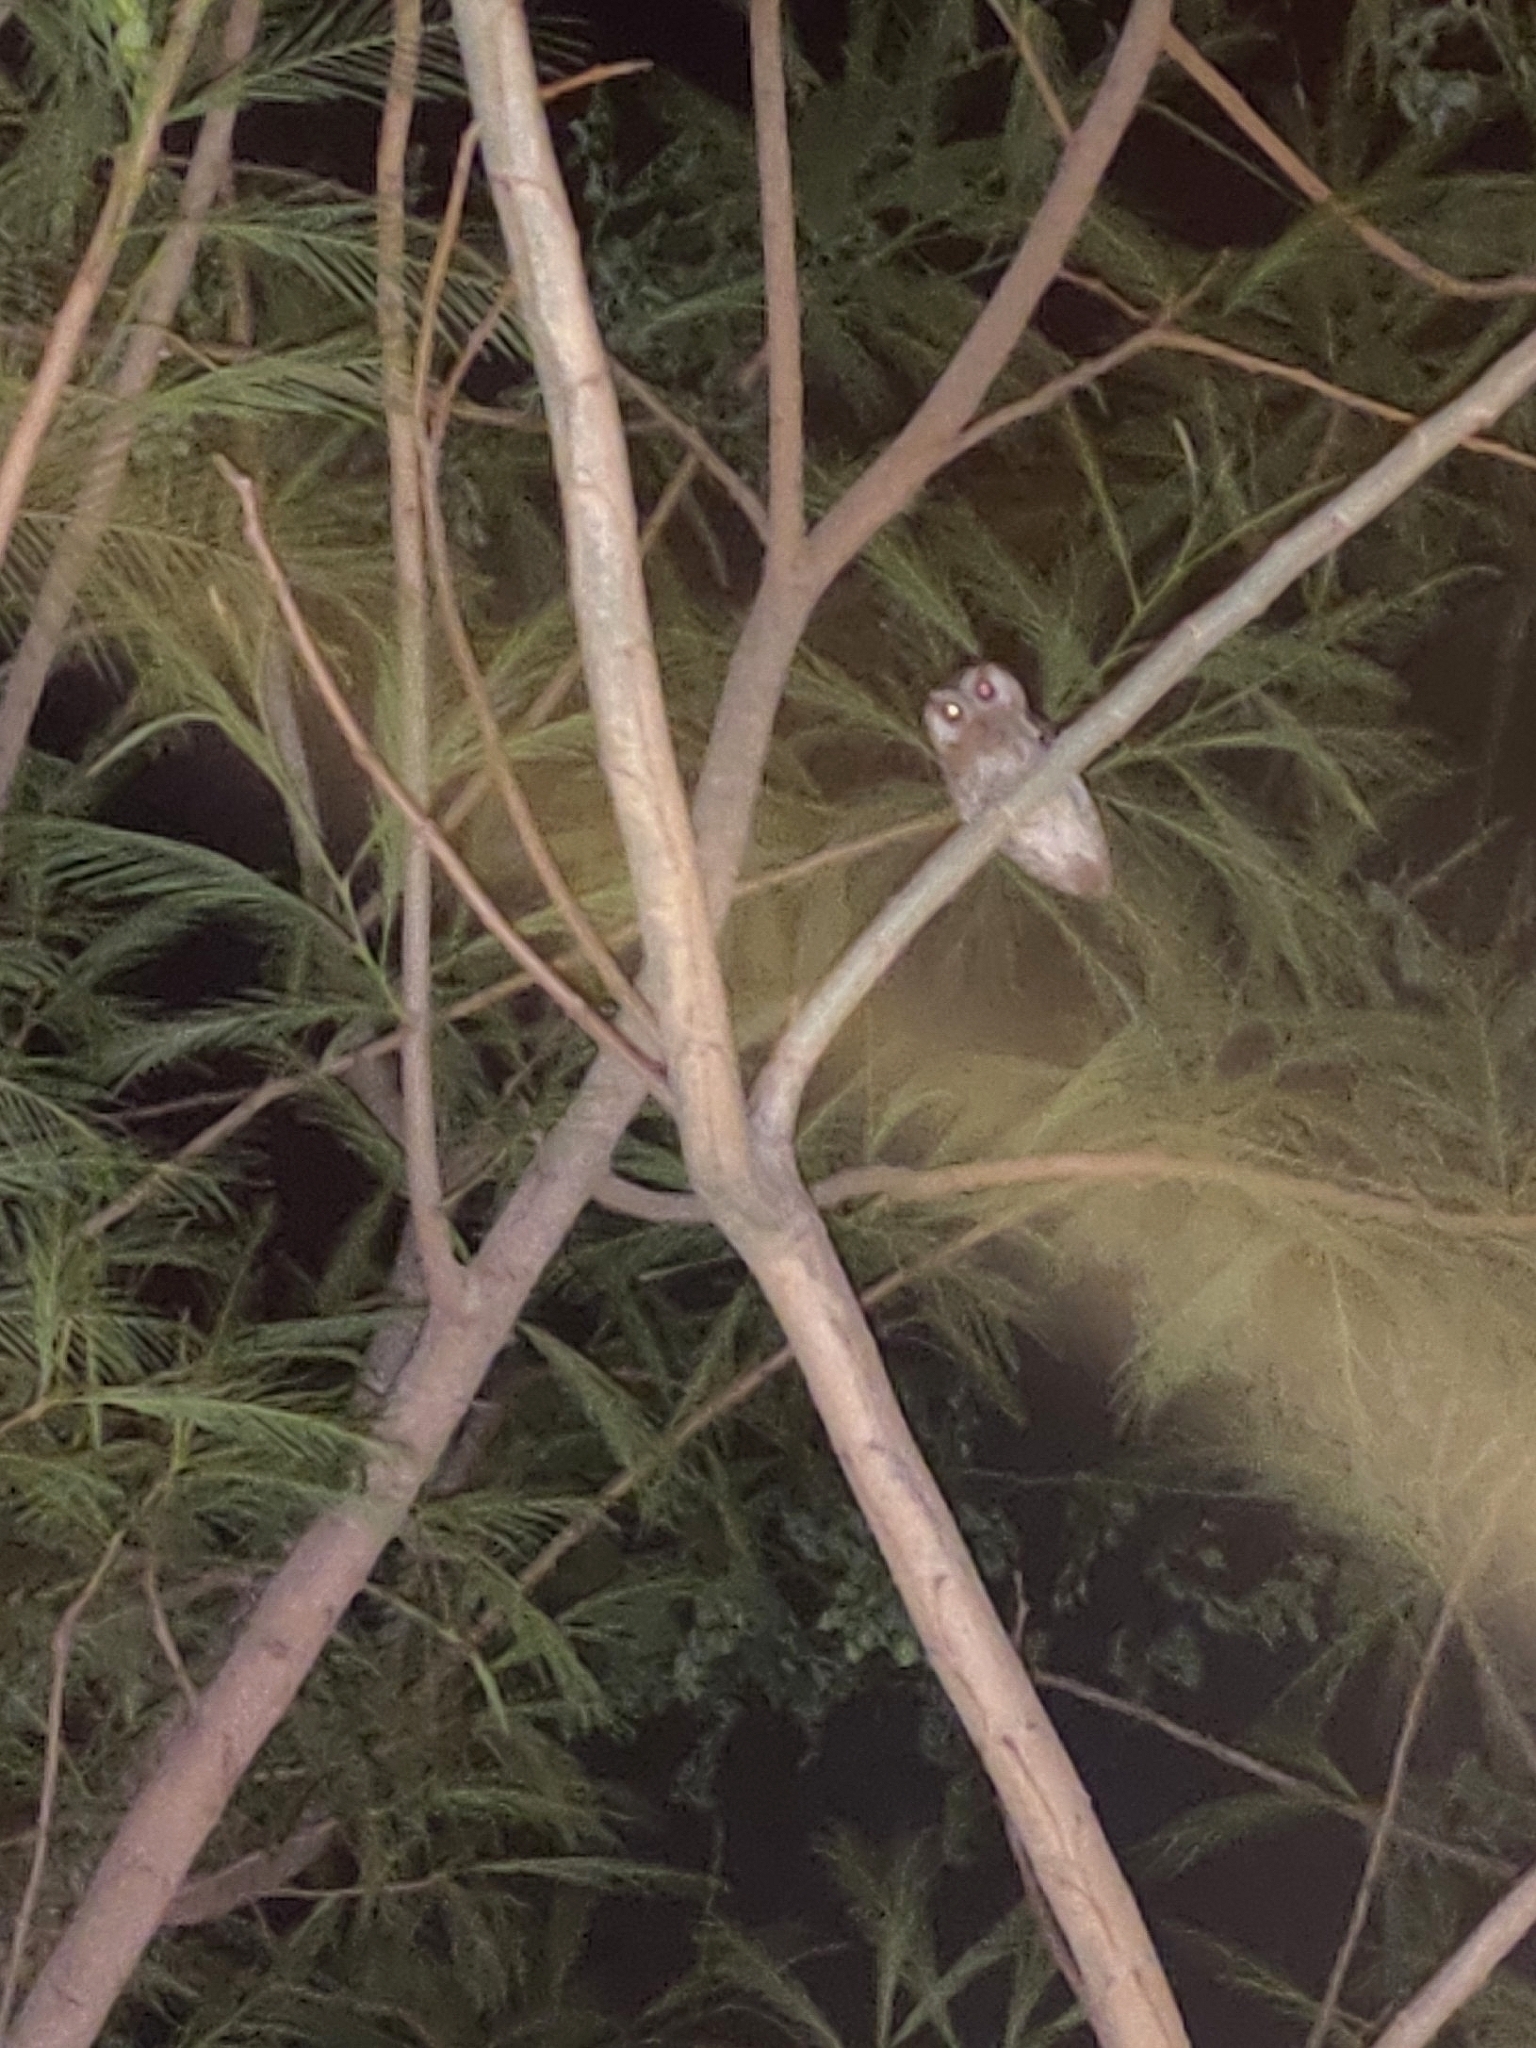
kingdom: Animalia
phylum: Chordata
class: Aves
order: Strigiformes
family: Strigidae
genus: Otus
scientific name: Otus bakkamoena
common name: Indian scops owl
